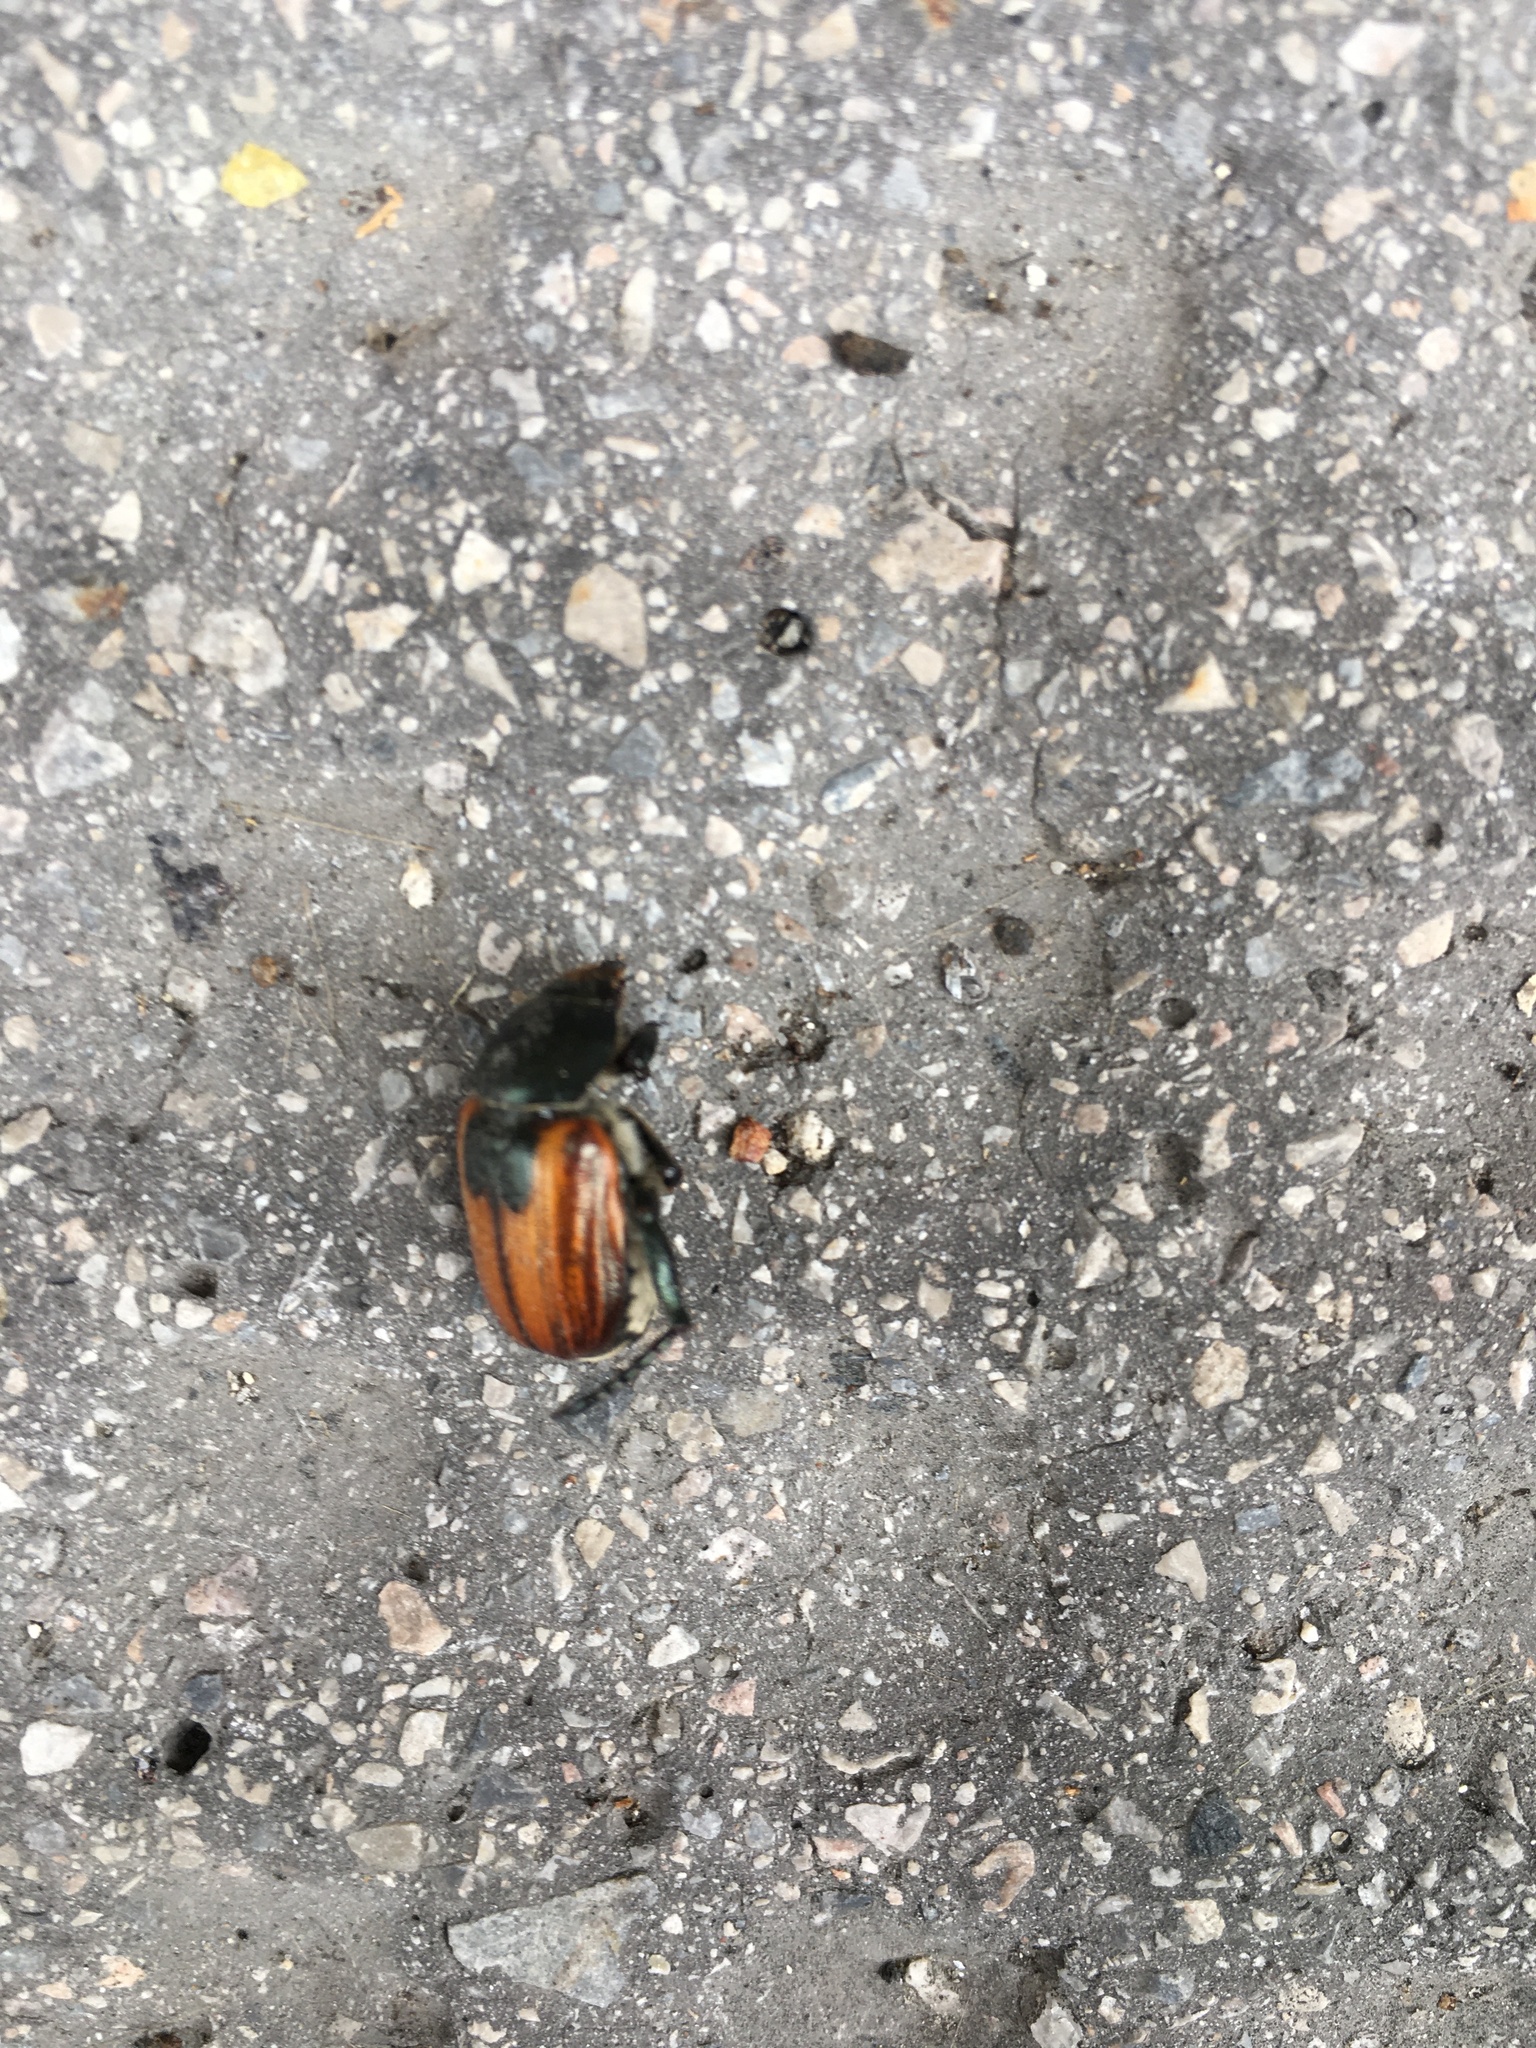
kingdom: Animalia
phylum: Arthropoda
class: Insecta
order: Coleoptera
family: Scarabaeidae
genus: Anisoplia
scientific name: Anisoplia austriaca
